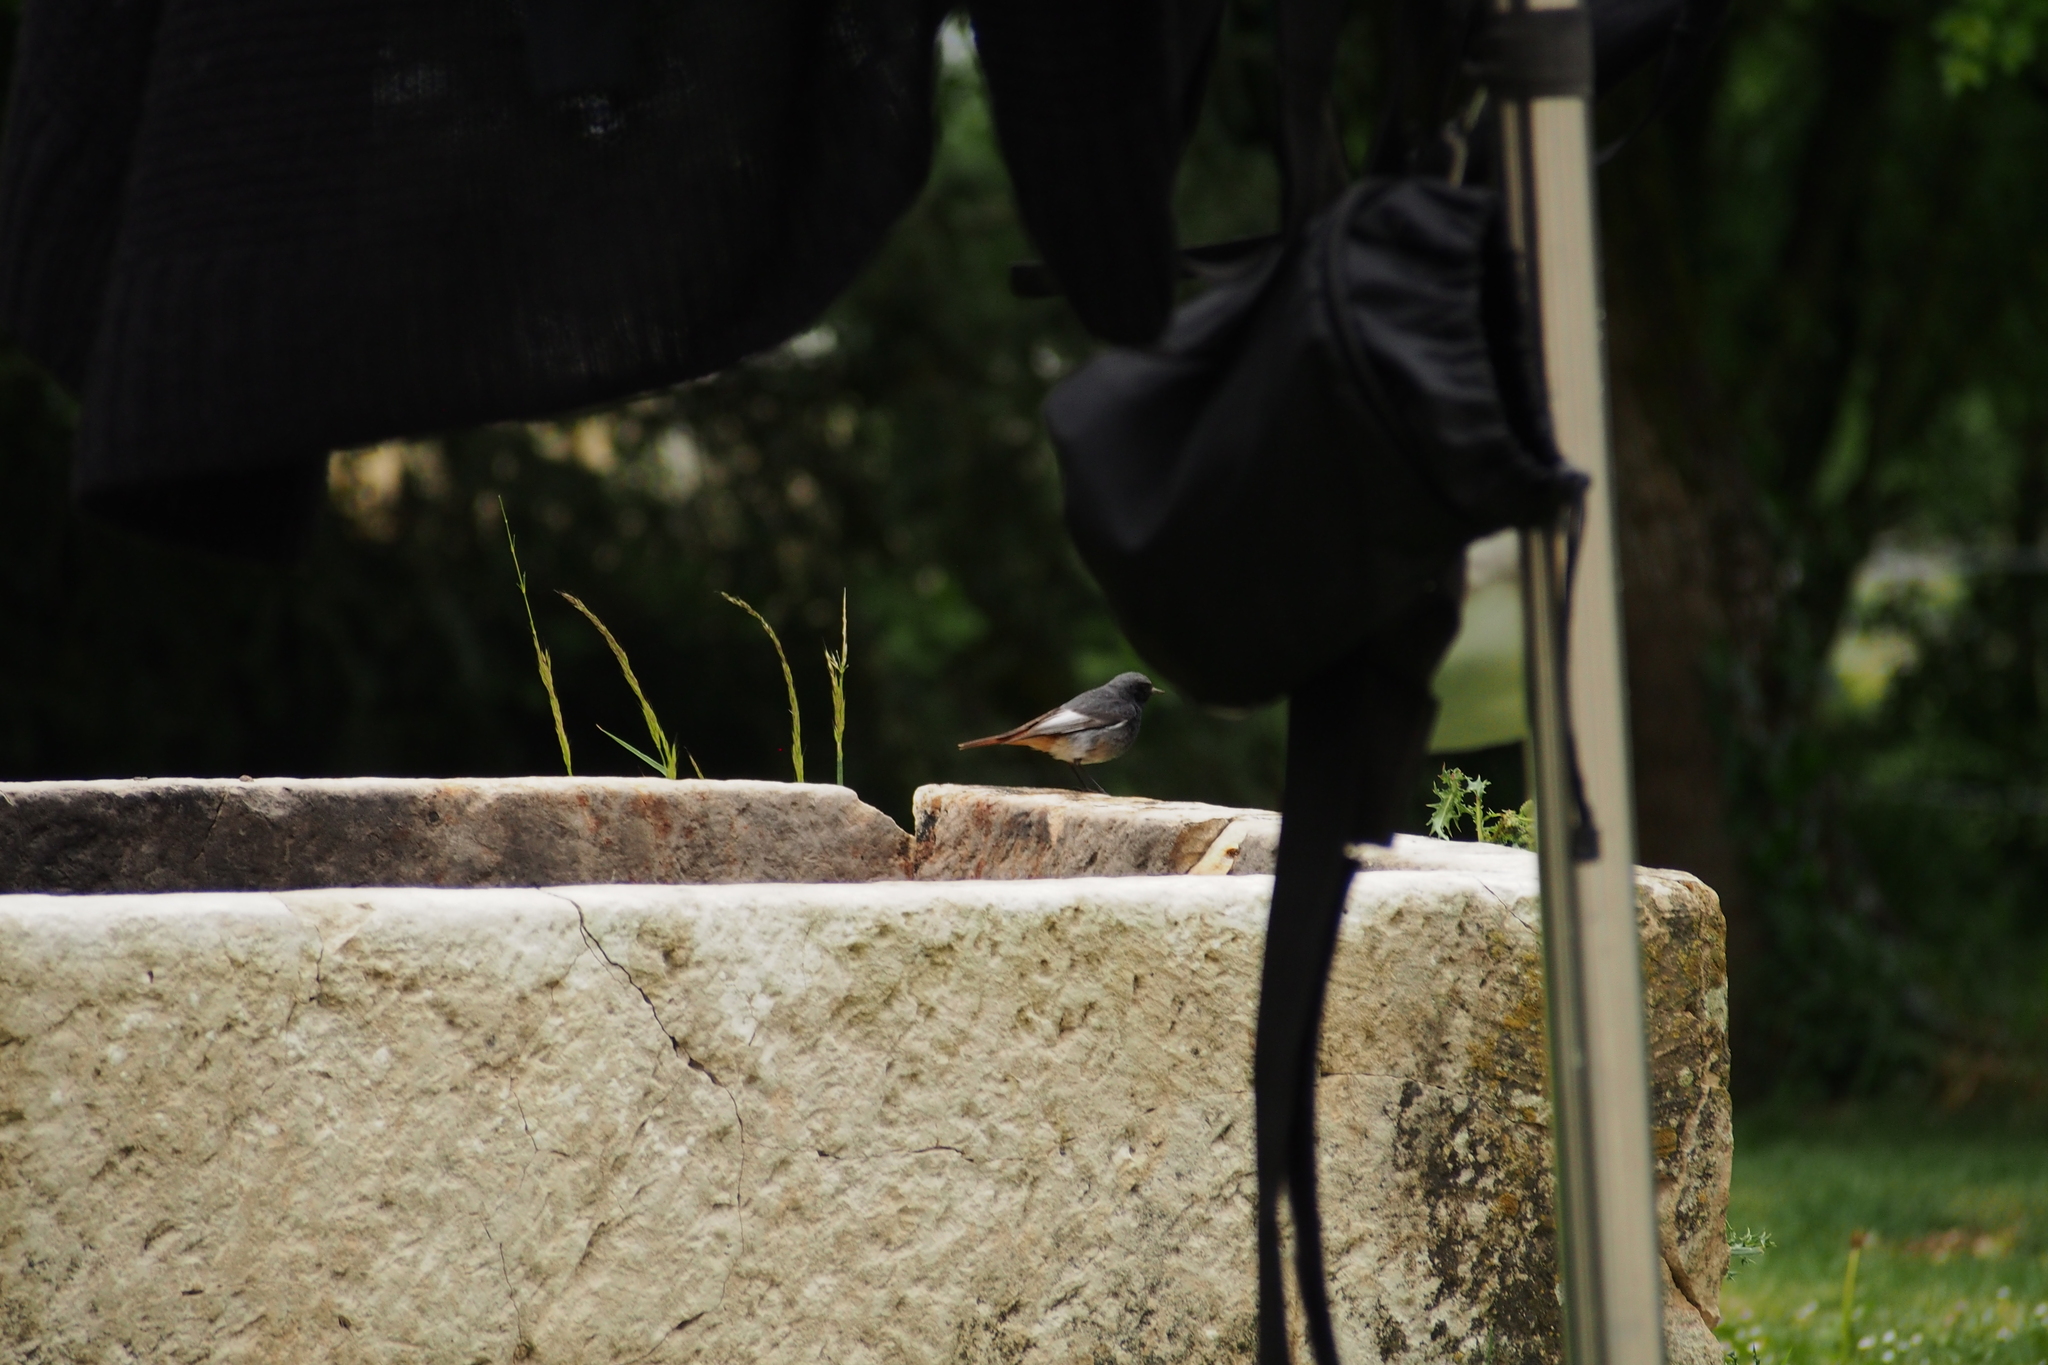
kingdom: Animalia
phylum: Chordata
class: Aves
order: Passeriformes
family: Muscicapidae
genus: Phoenicurus
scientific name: Phoenicurus ochruros
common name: Black redstart
